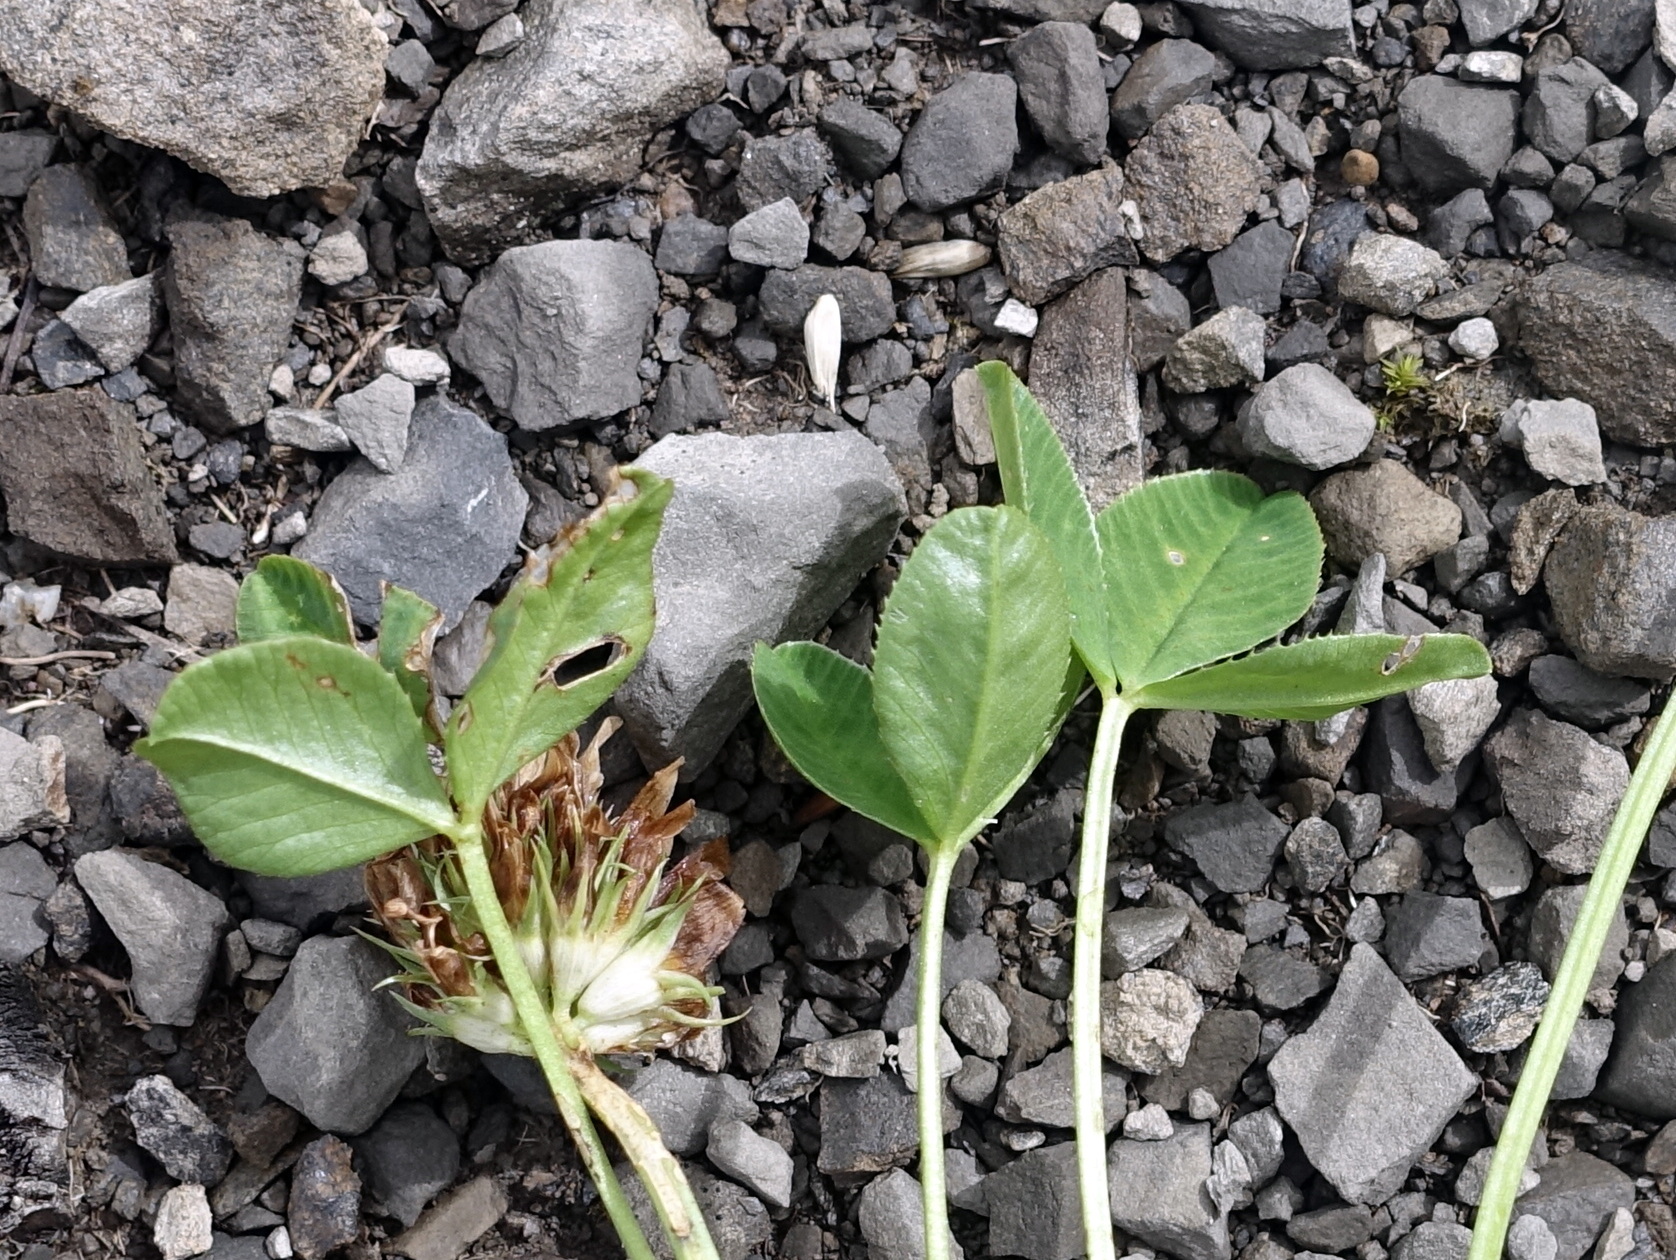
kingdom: Plantae
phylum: Tracheophyta
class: Magnoliopsida
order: Fabales
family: Fabaceae
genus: Trifolium
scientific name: Trifolium thalii
